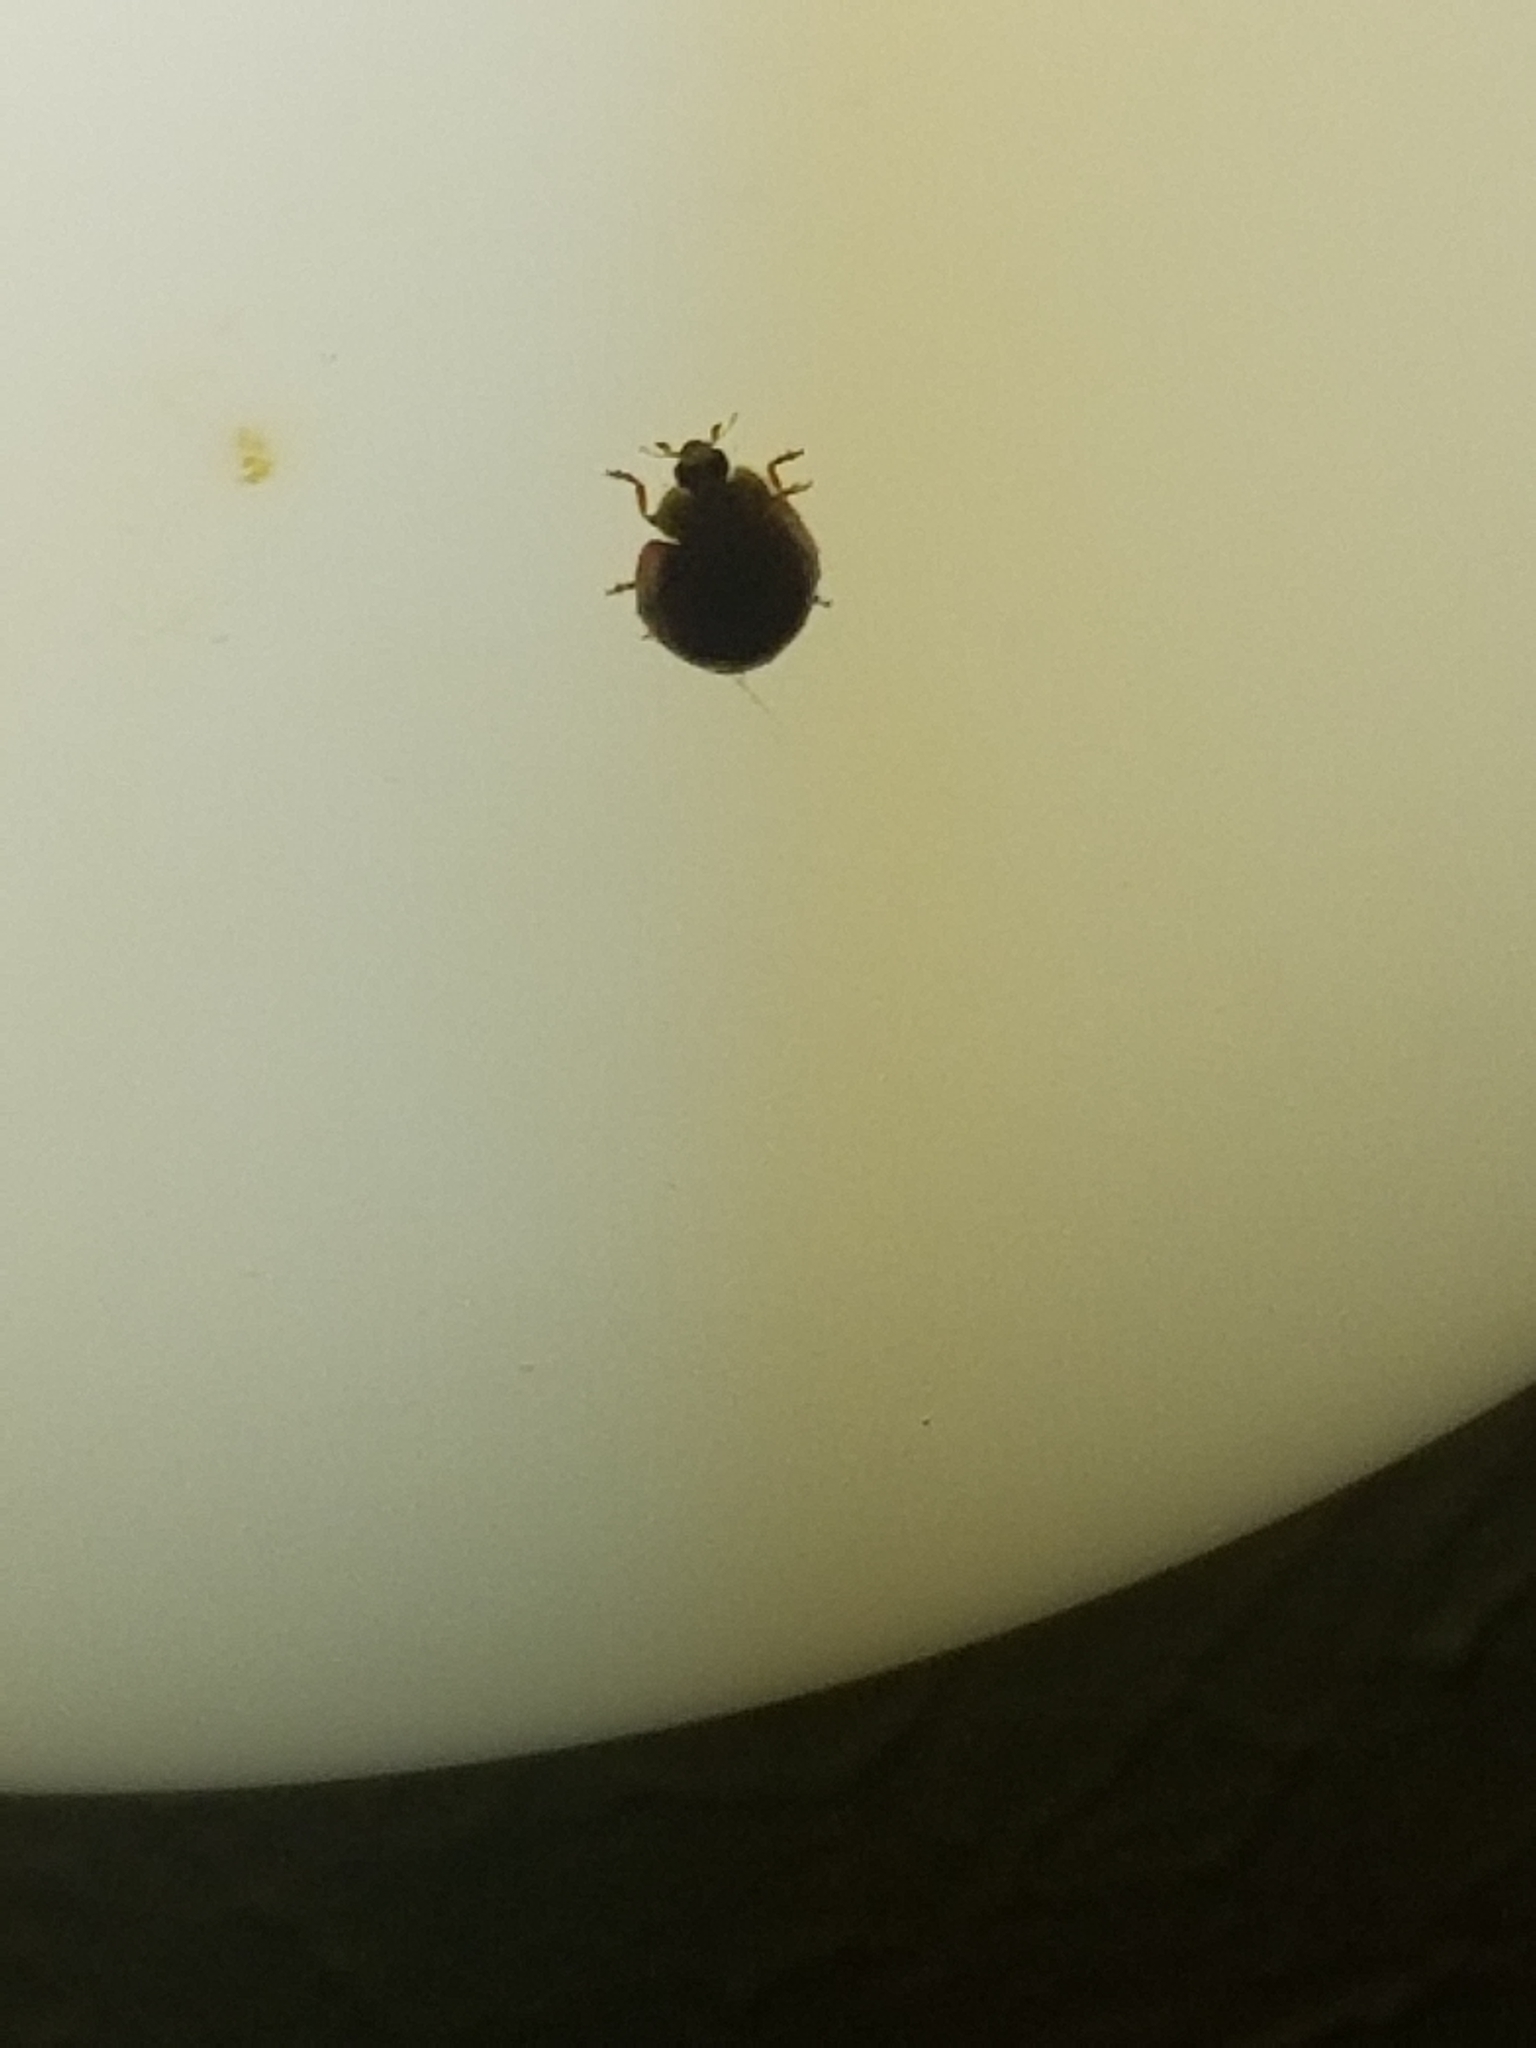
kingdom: Animalia
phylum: Arthropoda
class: Insecta
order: Coleoptera
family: Coccinellidae
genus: Harmonia
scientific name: Harmonia axyridis
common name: Harlequin ladybird
